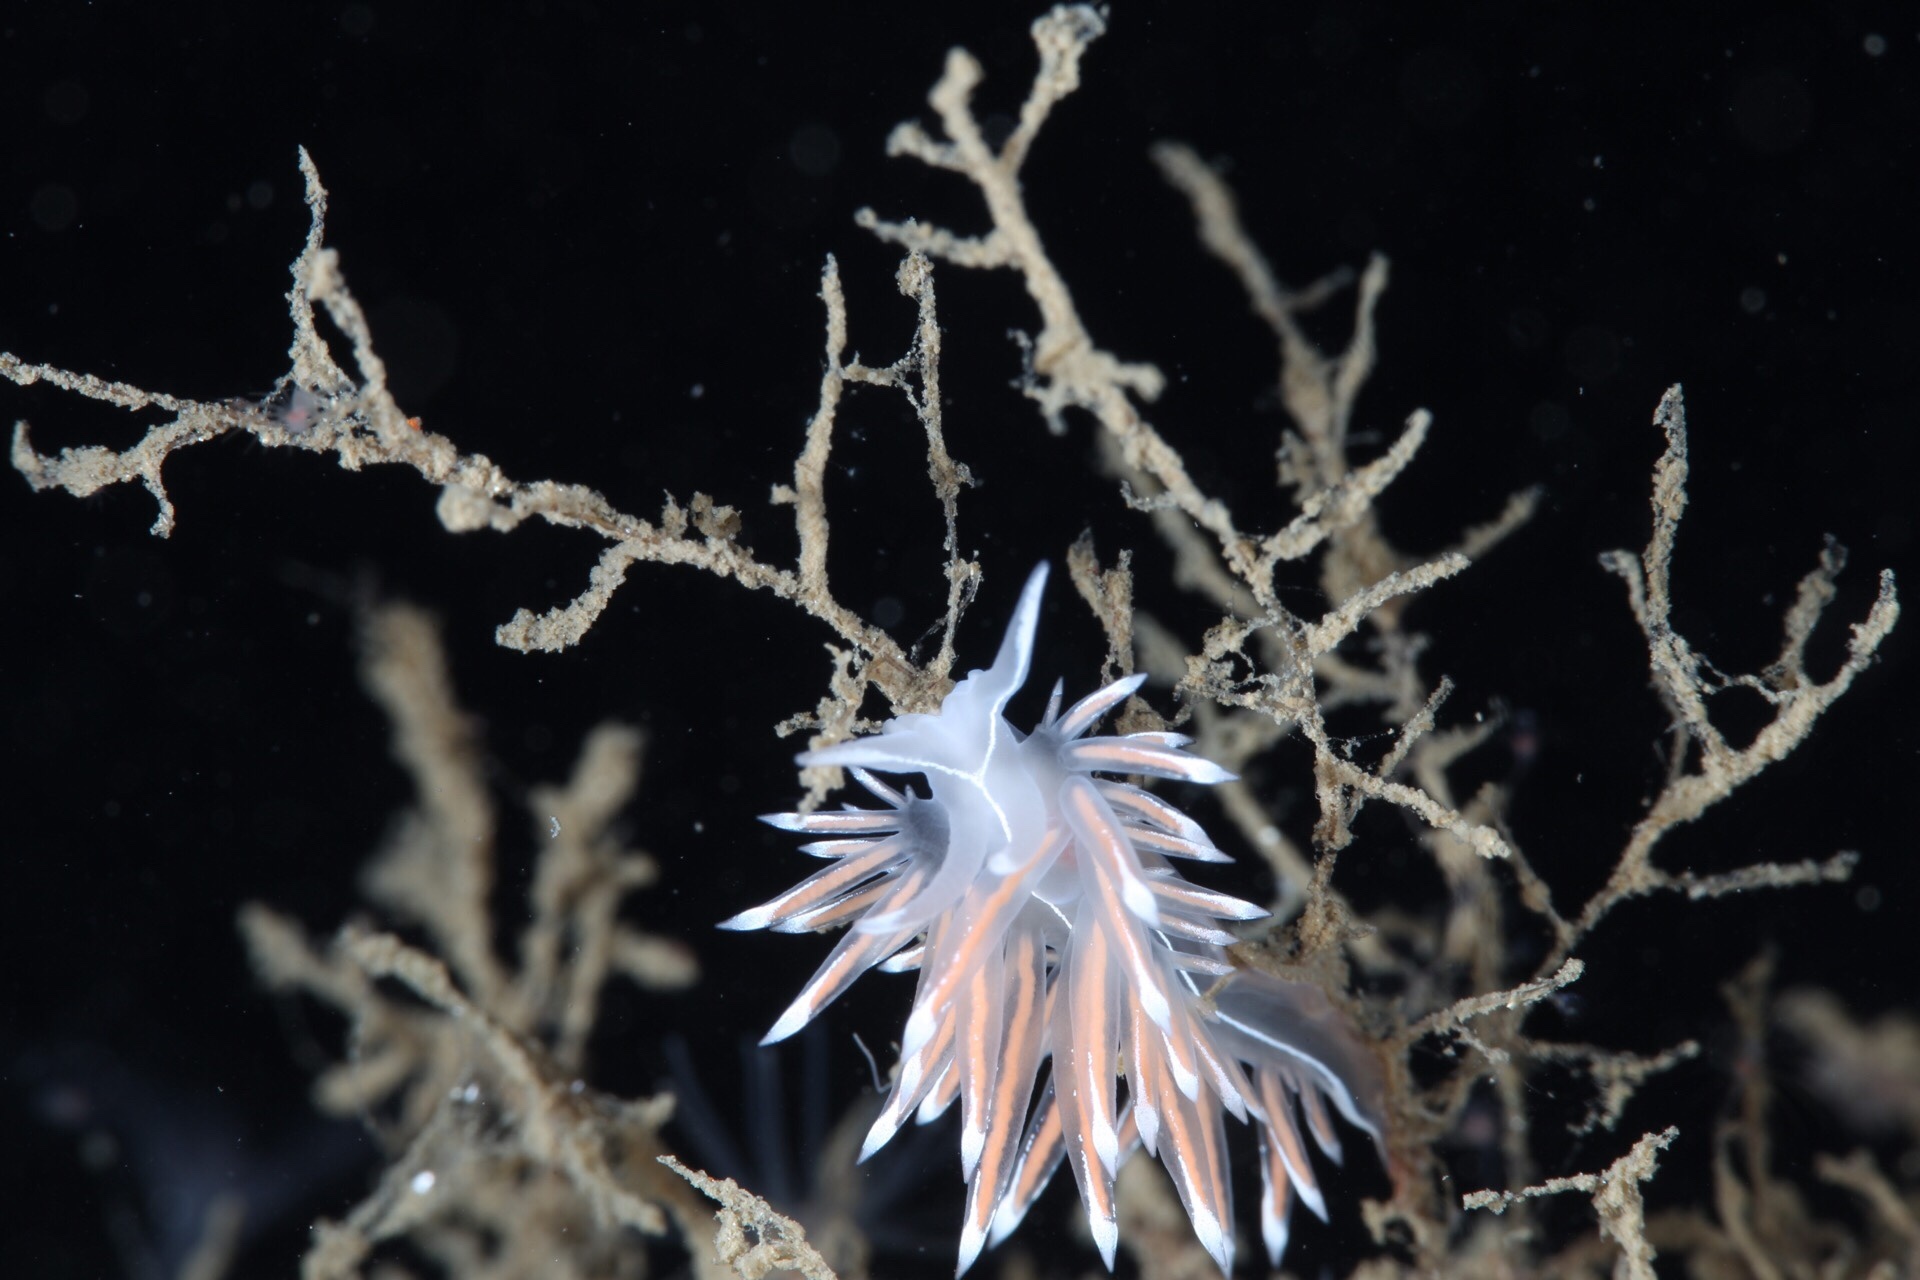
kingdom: Animalia
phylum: Mollusca
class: Gastropoda
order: Nudibranchia
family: Coryphellidae
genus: Coryphella
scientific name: Coryphella lineata
